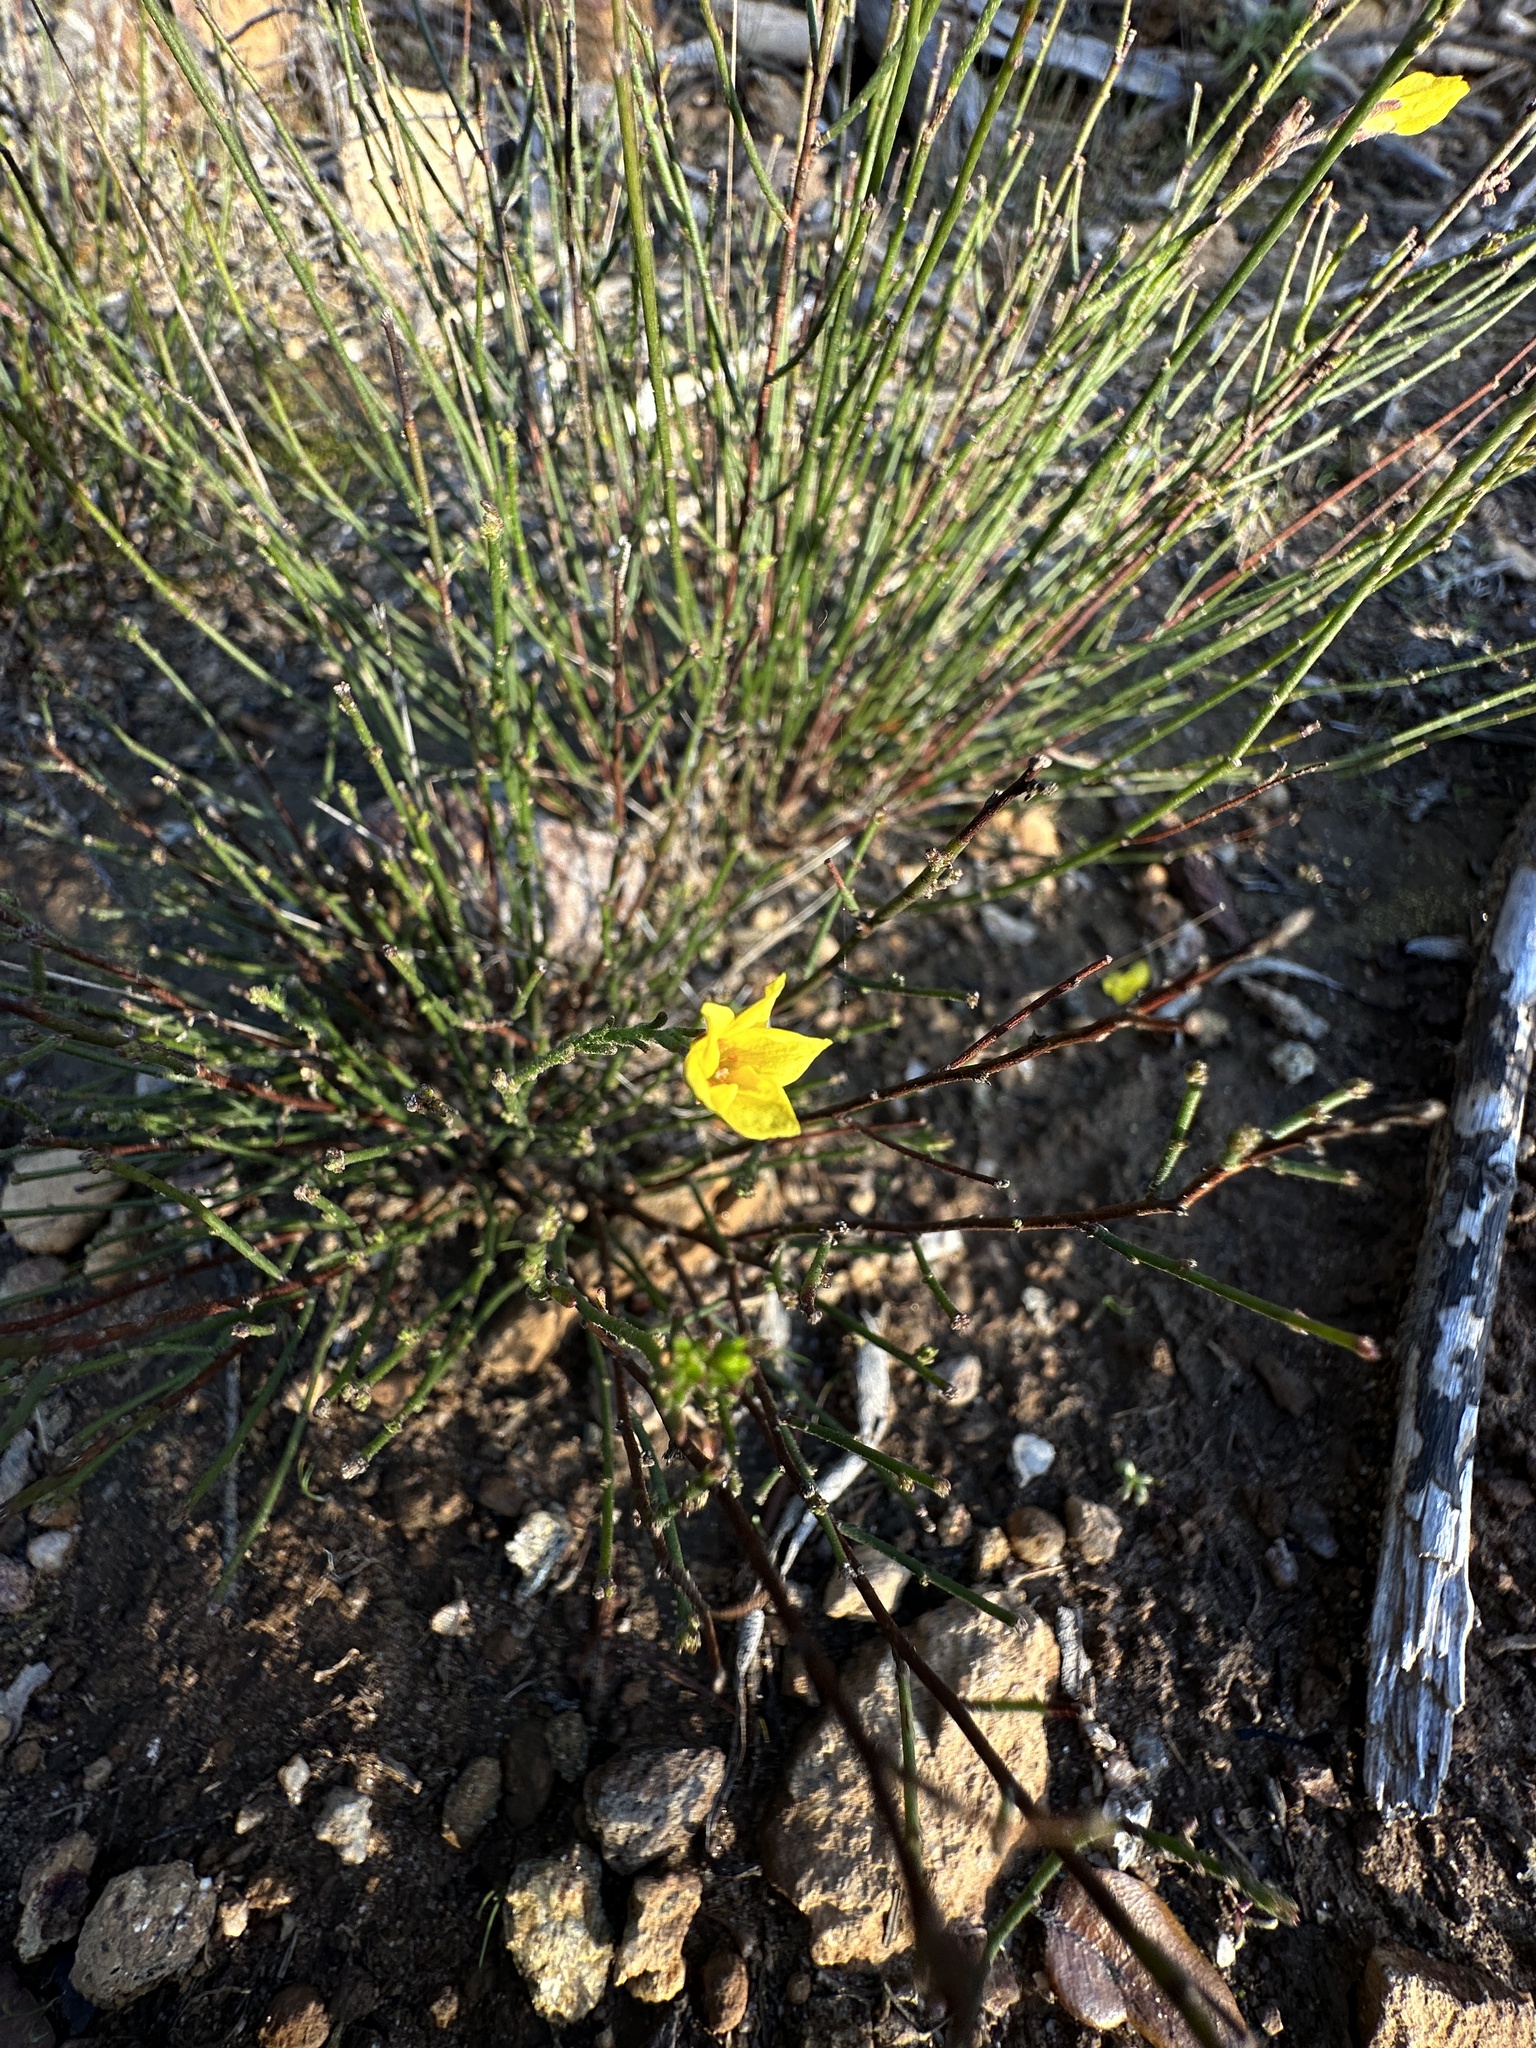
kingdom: Plantae
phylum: Tracheophyta
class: Magnoliopsida
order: Malvales
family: Cistaceae
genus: Crocanthemum
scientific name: Crocanthemum scoparium
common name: Broom-rose
